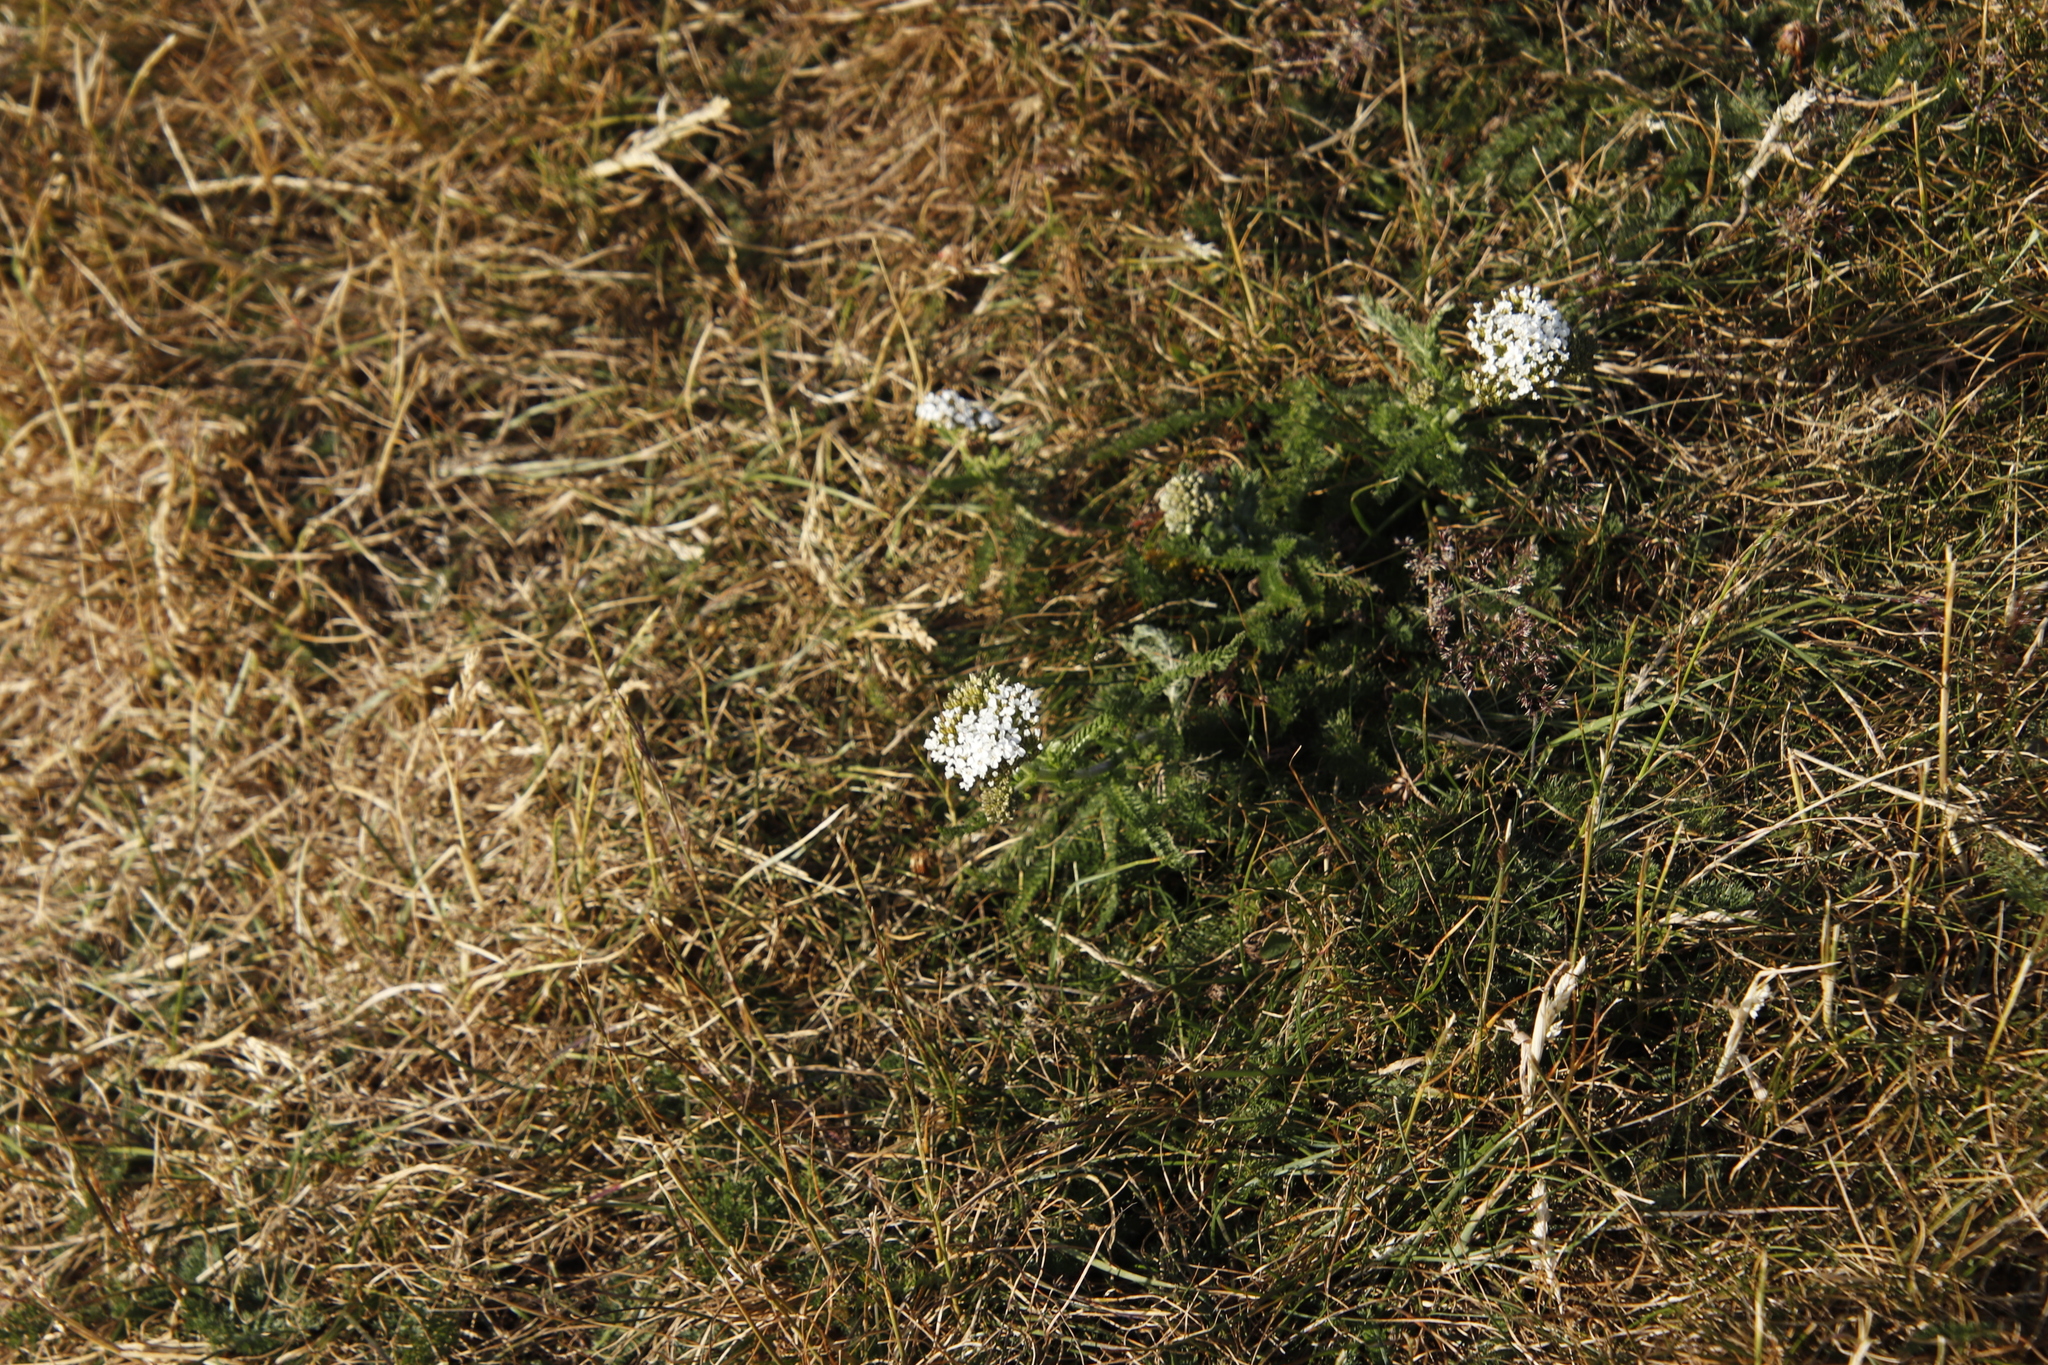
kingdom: Plantae
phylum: Tracheophyta
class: Magnoliopsida
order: Asterales
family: Asteraceae
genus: Achillea
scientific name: Achillea millefolium
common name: Yarrow
